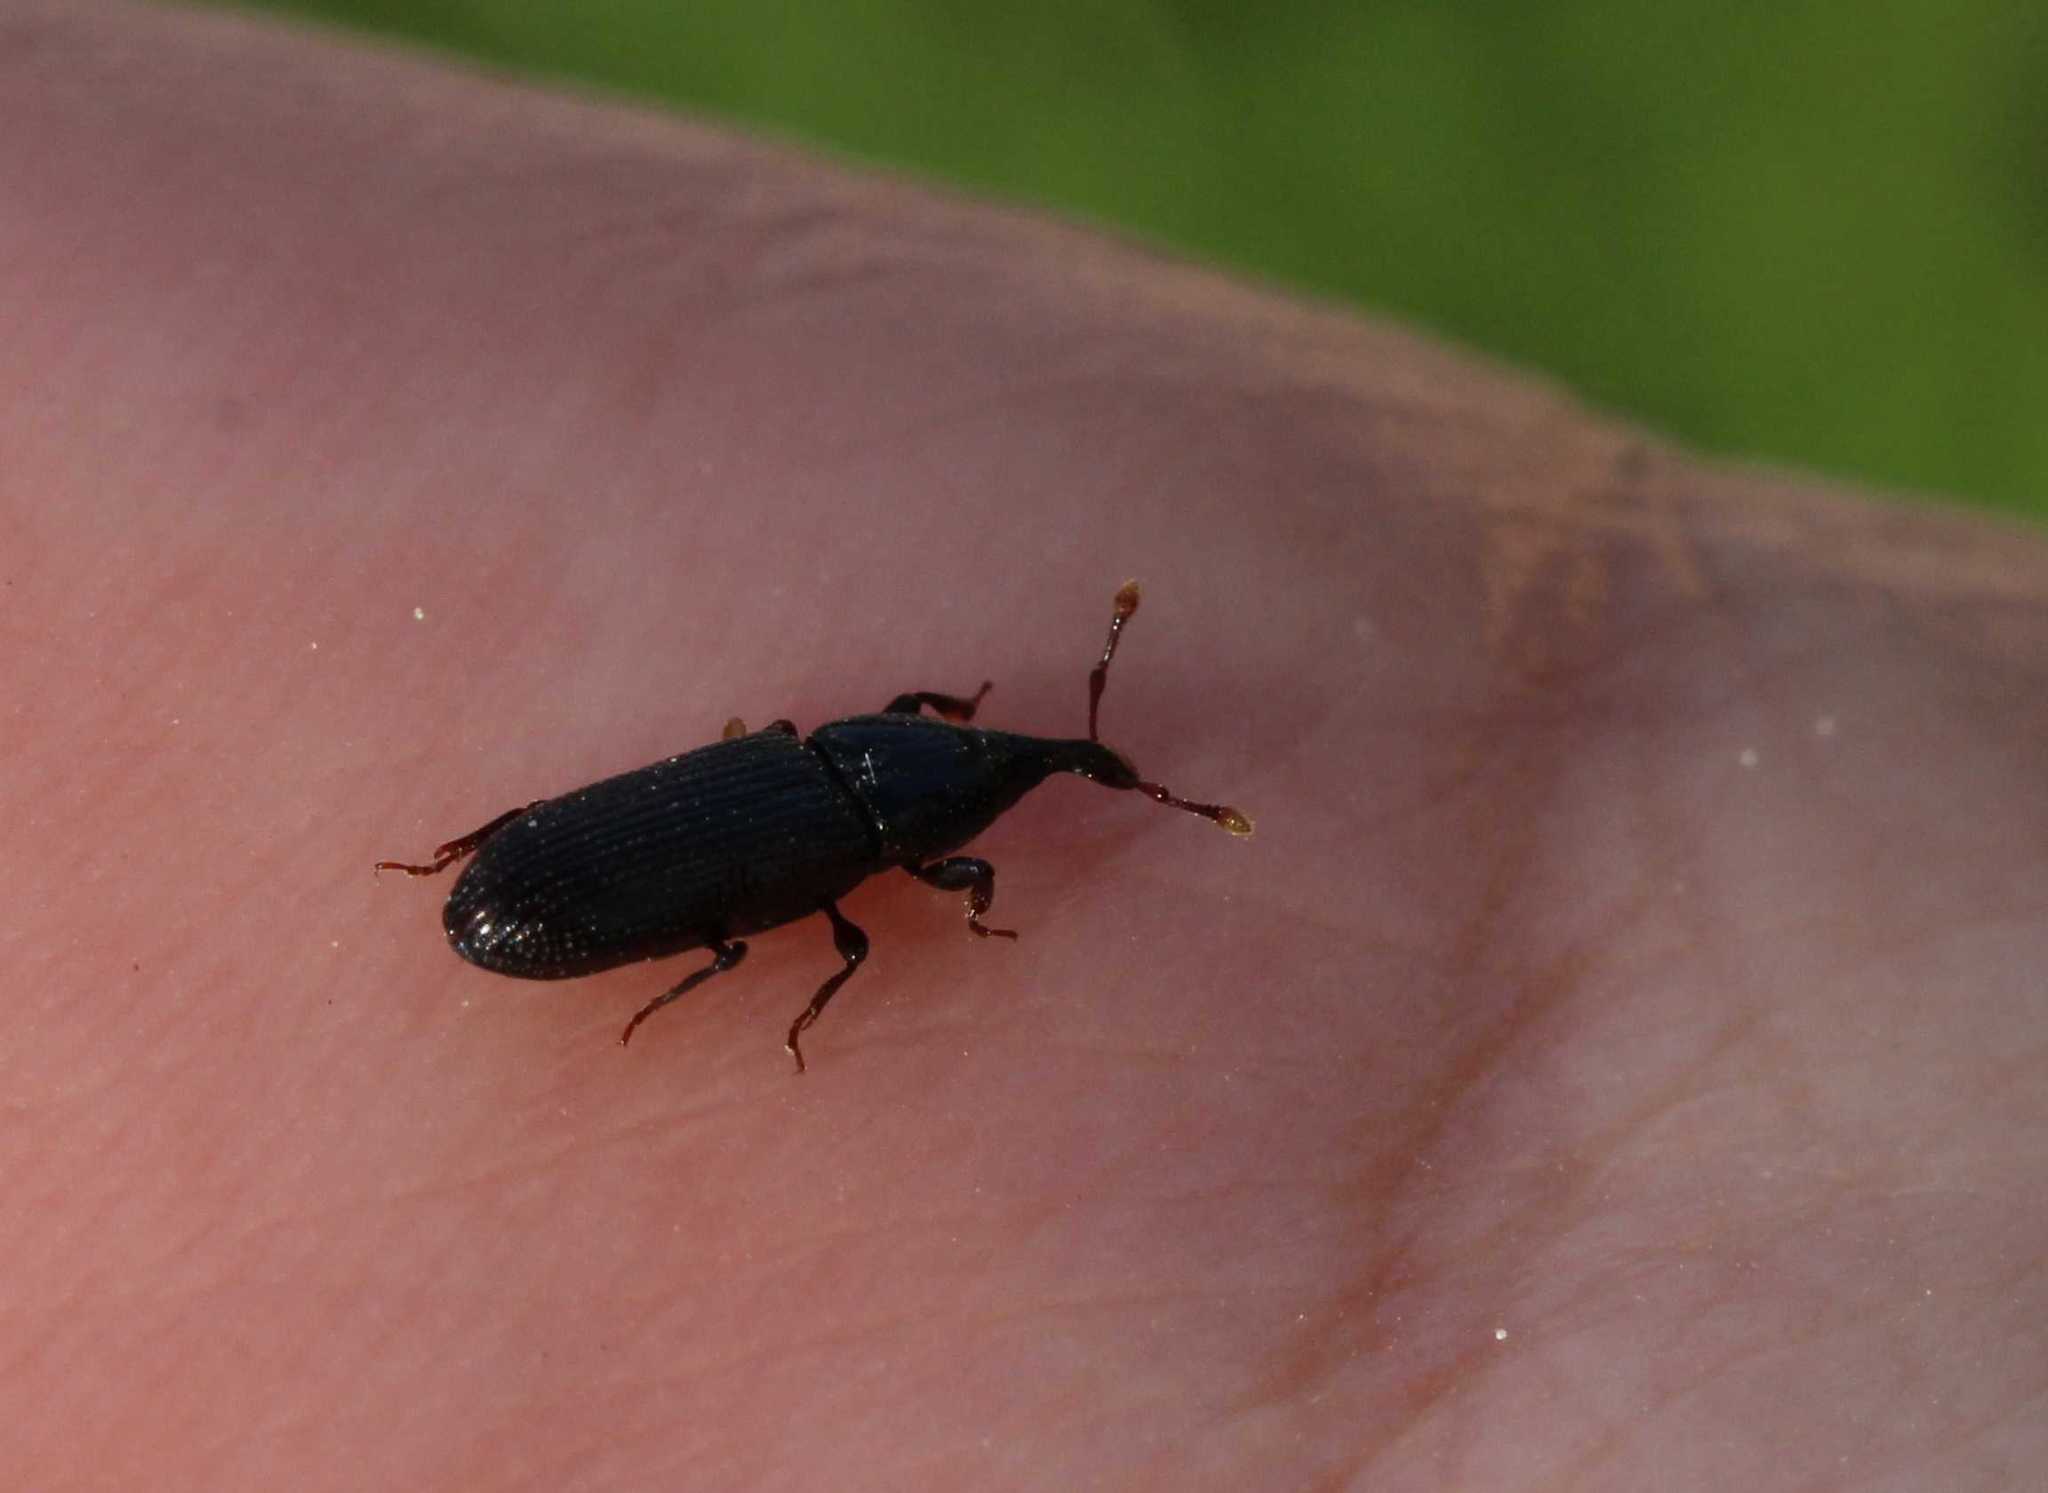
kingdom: Animalia
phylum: Arthropoda
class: Insecta
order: Coleoptera
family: Curculionidae
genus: Cossonus
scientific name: Cossonus linearis
